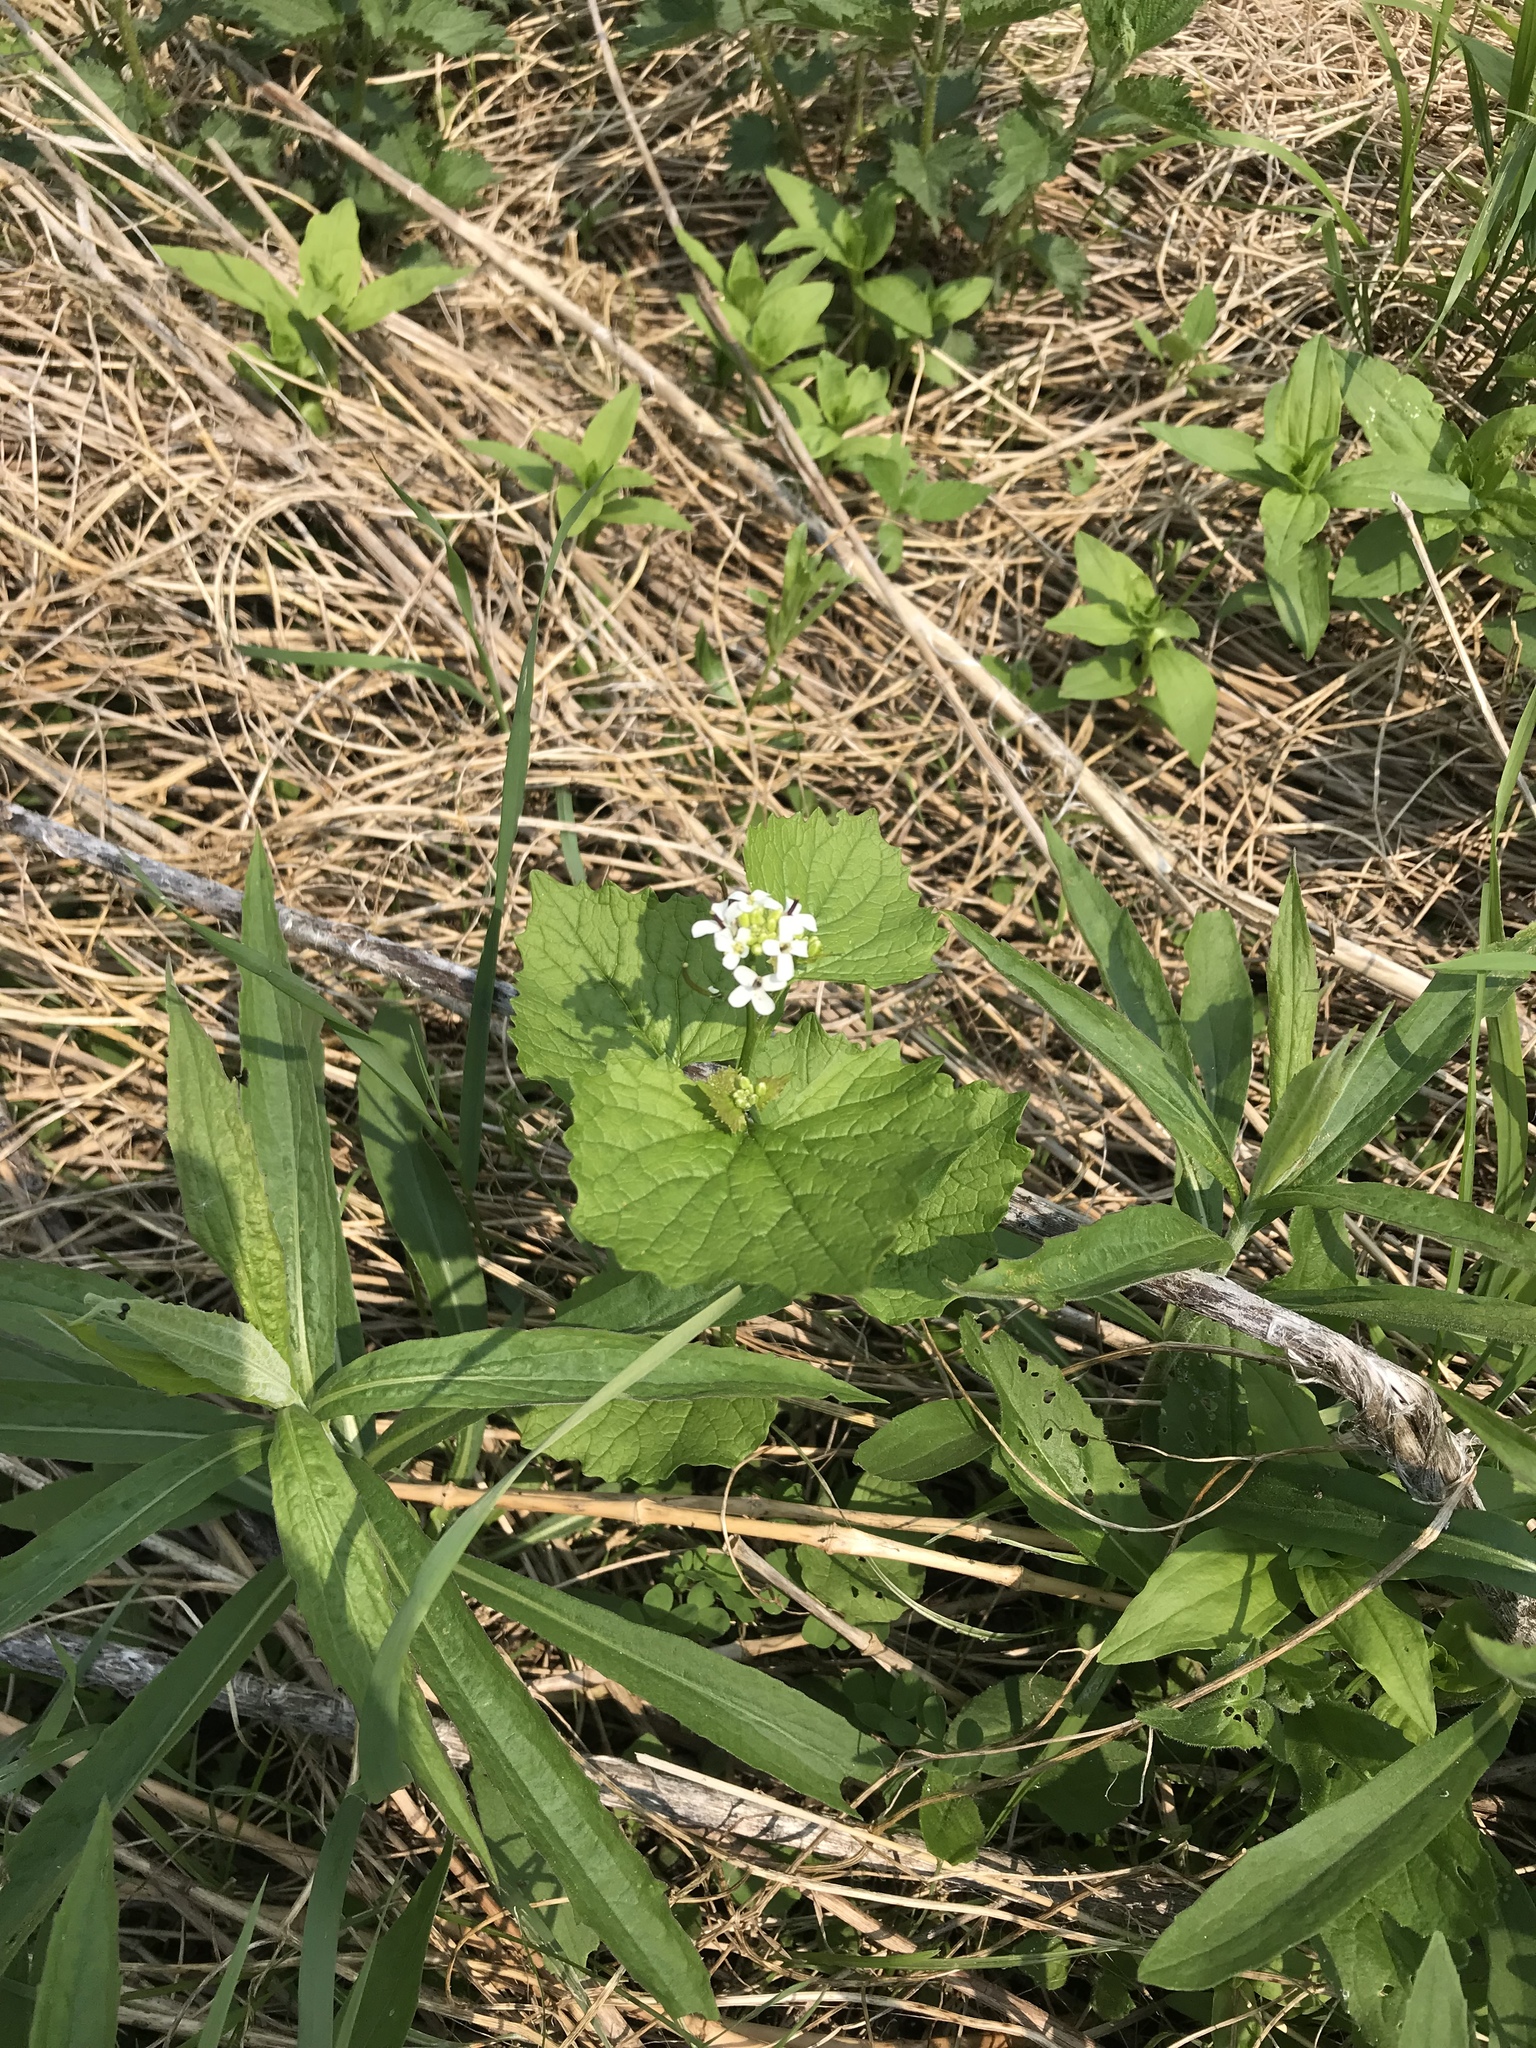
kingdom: Plantae
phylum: Tracheophyta
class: Magnoliopsida
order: Brassicales
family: Brassicaceae
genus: Alliaria
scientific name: Alliaria petiolata
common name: Garlic mustard
